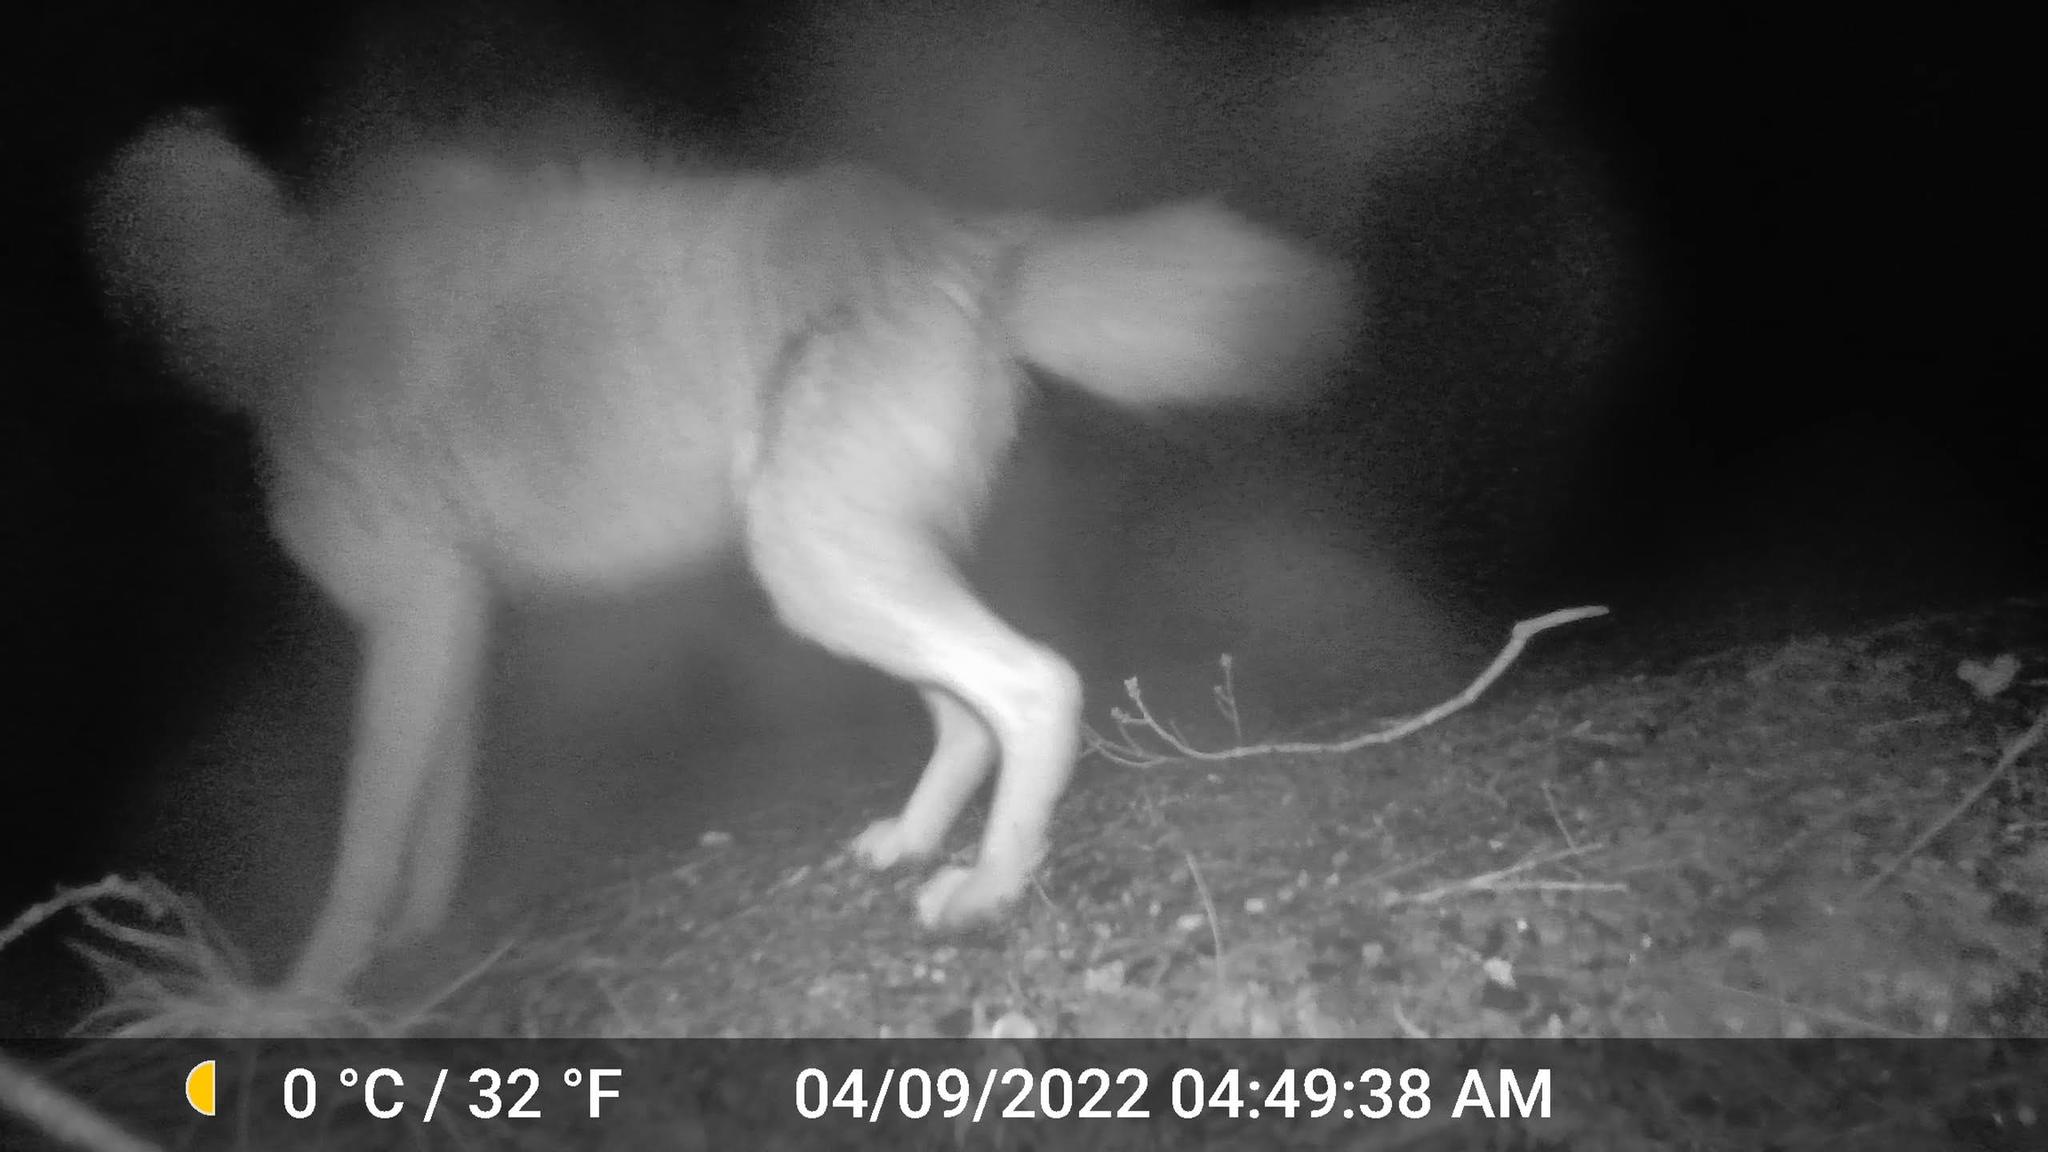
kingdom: Animalia
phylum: Chordata
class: Mammalia
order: Carnivora
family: Canidae
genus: Canis
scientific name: Canis latrans
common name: Coyote
